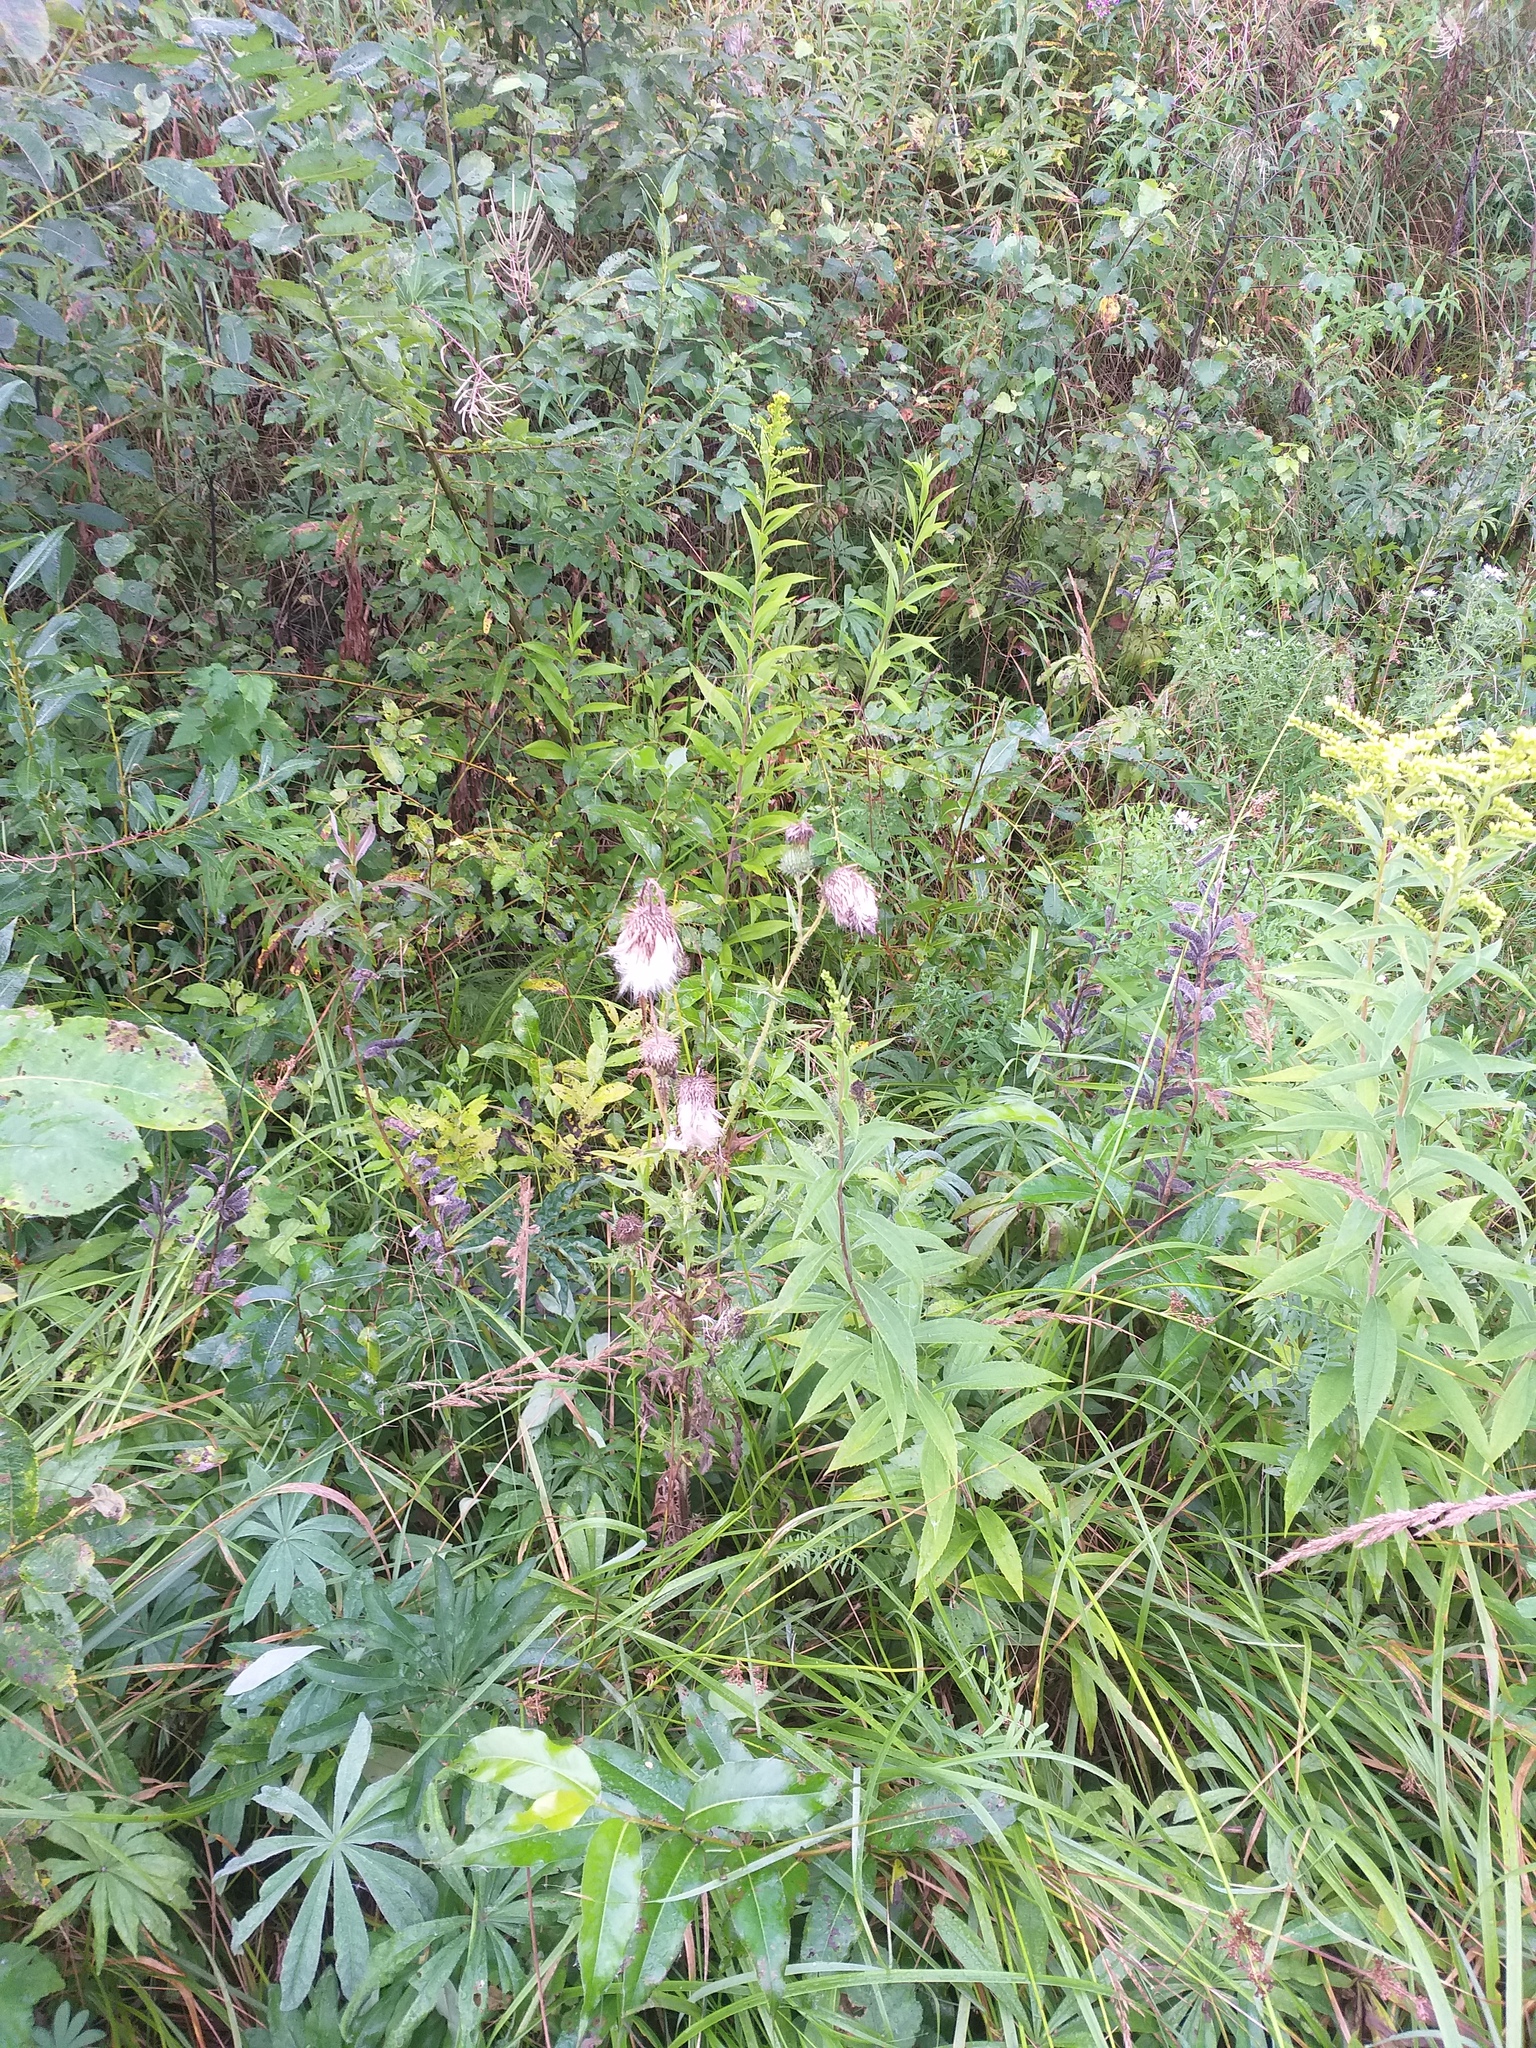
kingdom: Plantae
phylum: Tracheophyta
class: Magnoliopsida
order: Asterales
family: Asteraceae
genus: Cirsium
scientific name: Cirsium vulgare
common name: Bull thistle
